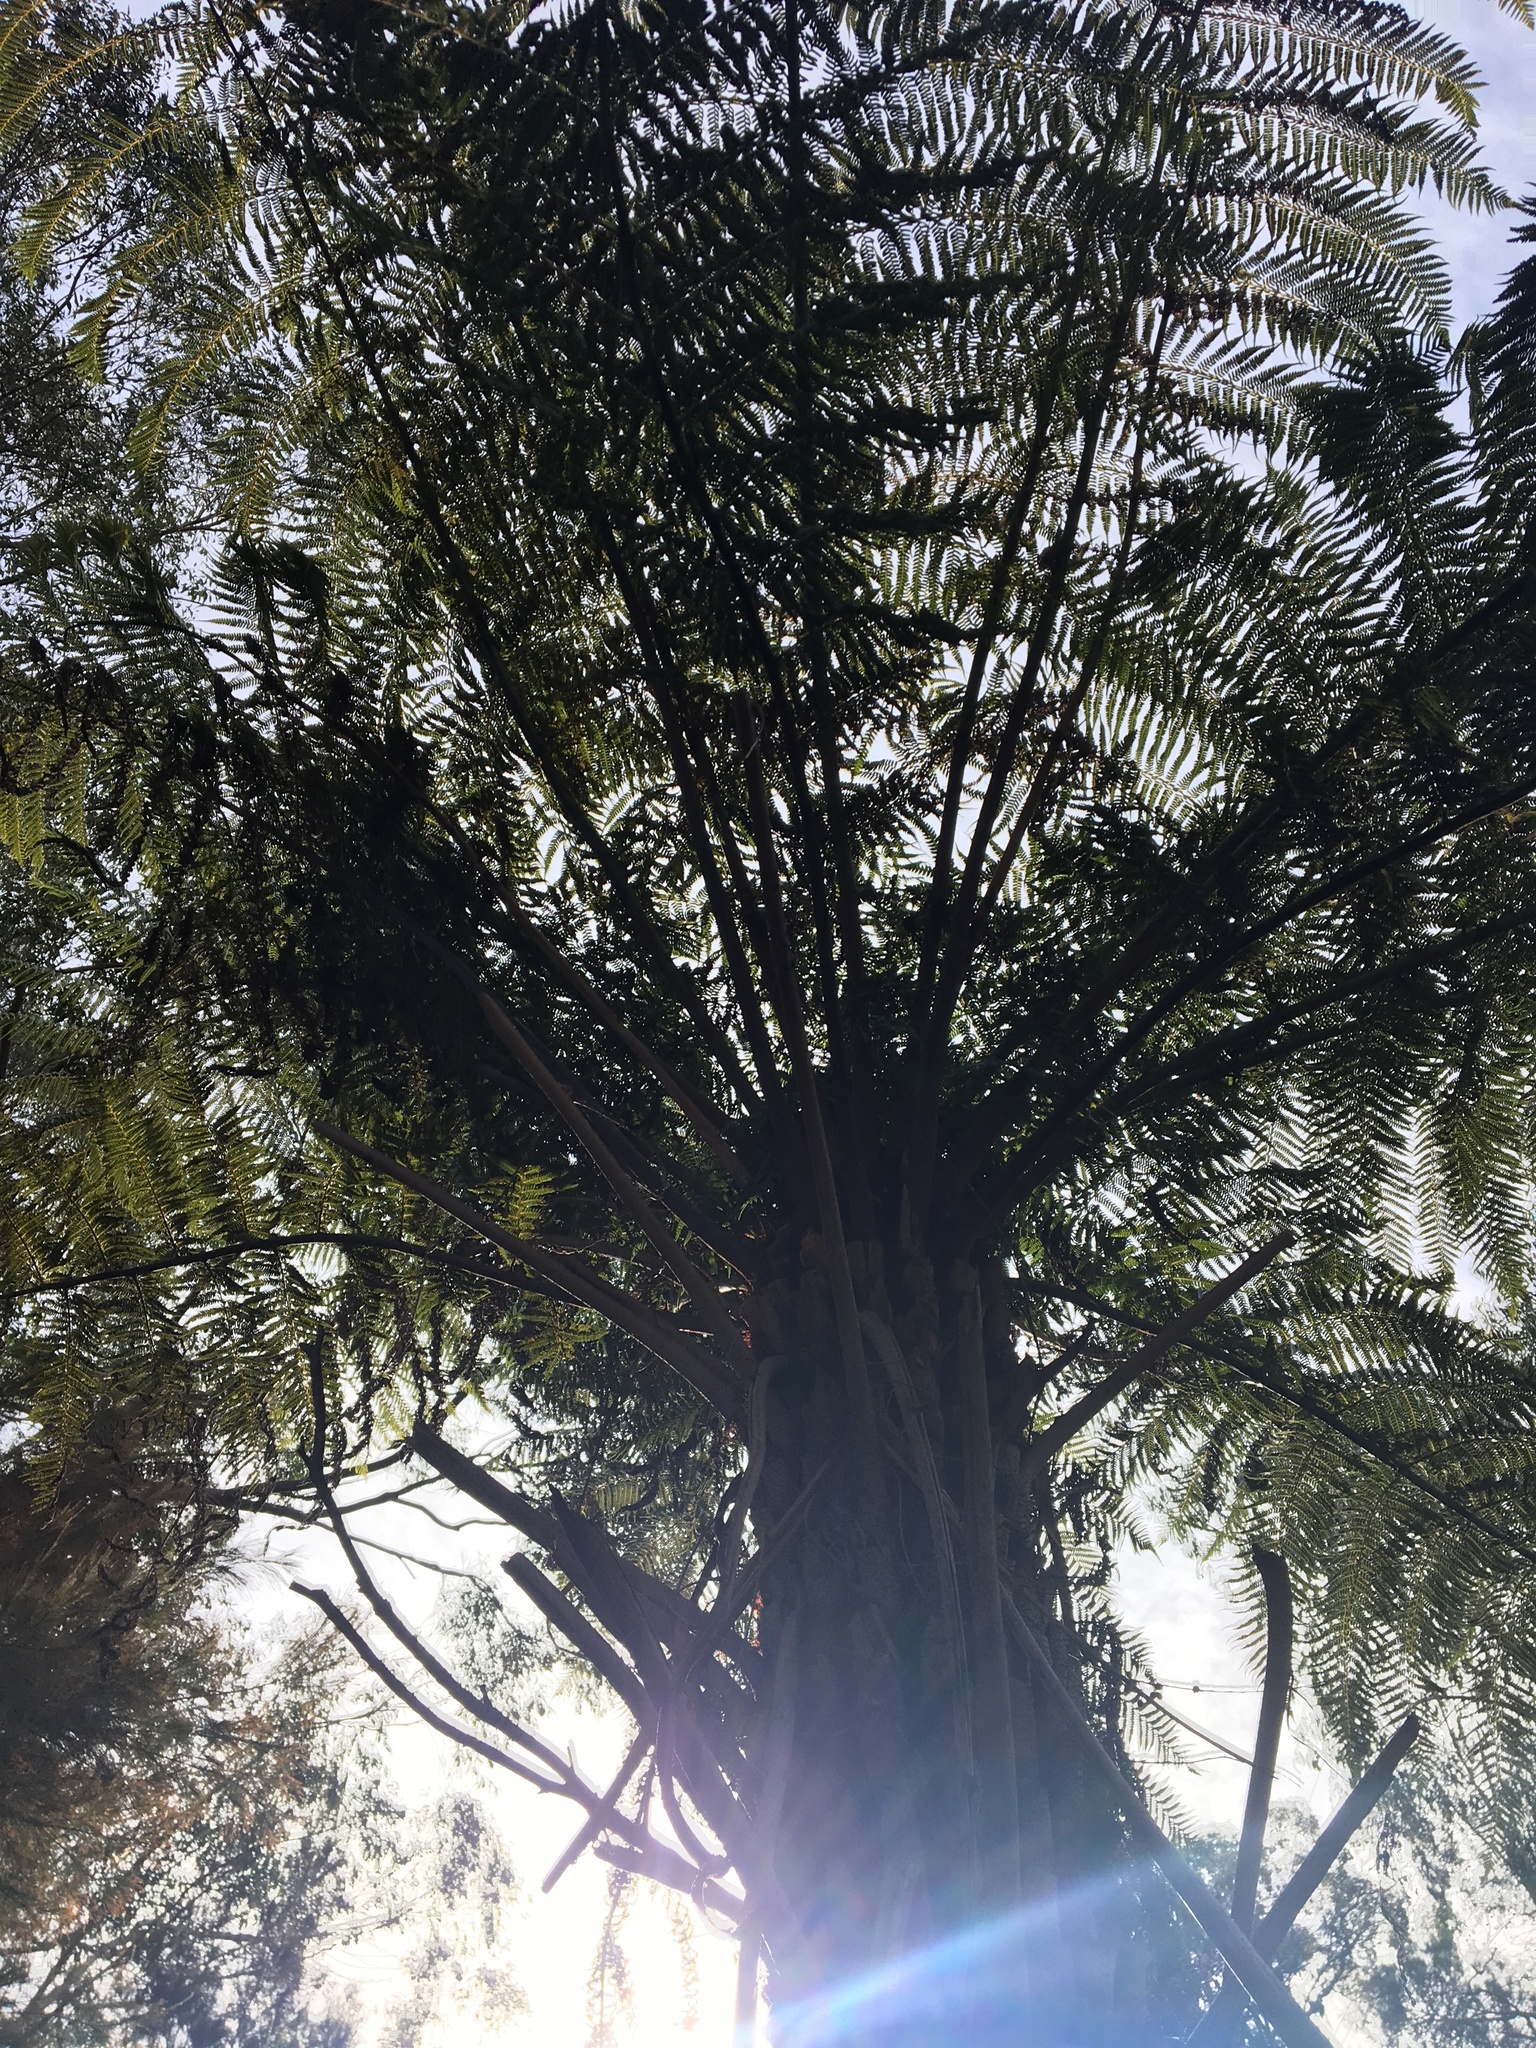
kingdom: Plantae
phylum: Tracheophyta
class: Polypodiopsida
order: Cyatheales
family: Cyatheaceae
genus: Alsophila
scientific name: Alsophila australis
